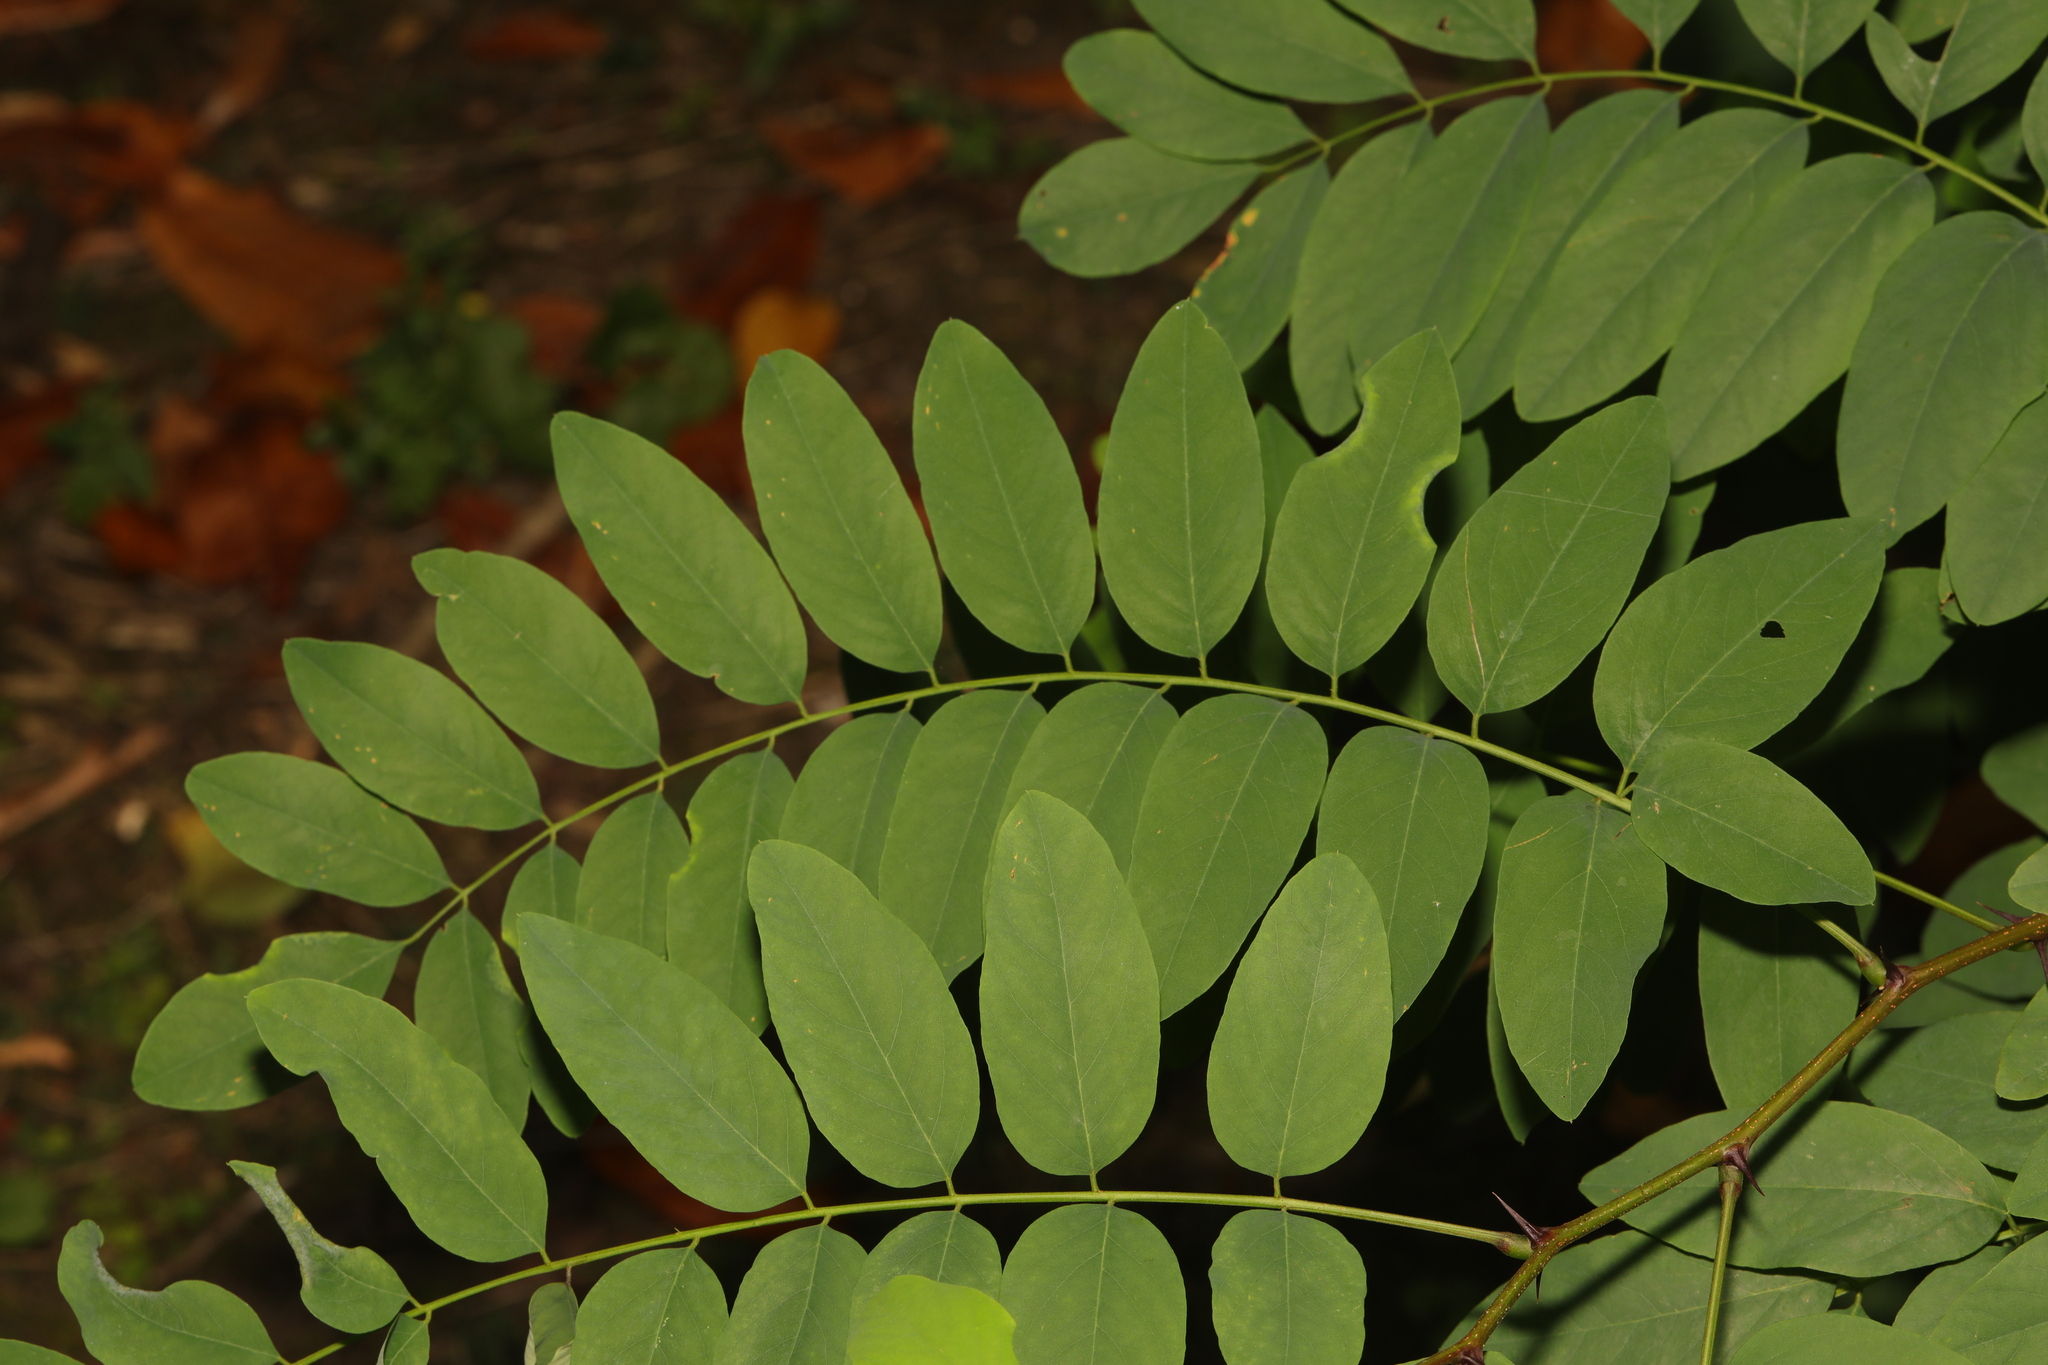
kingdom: Plantae
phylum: Tracheophyta
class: Magnoliopsida
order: Fabales
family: Fabaceae
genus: Robinia
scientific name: Robinia pseudoacacia
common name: Black locust
